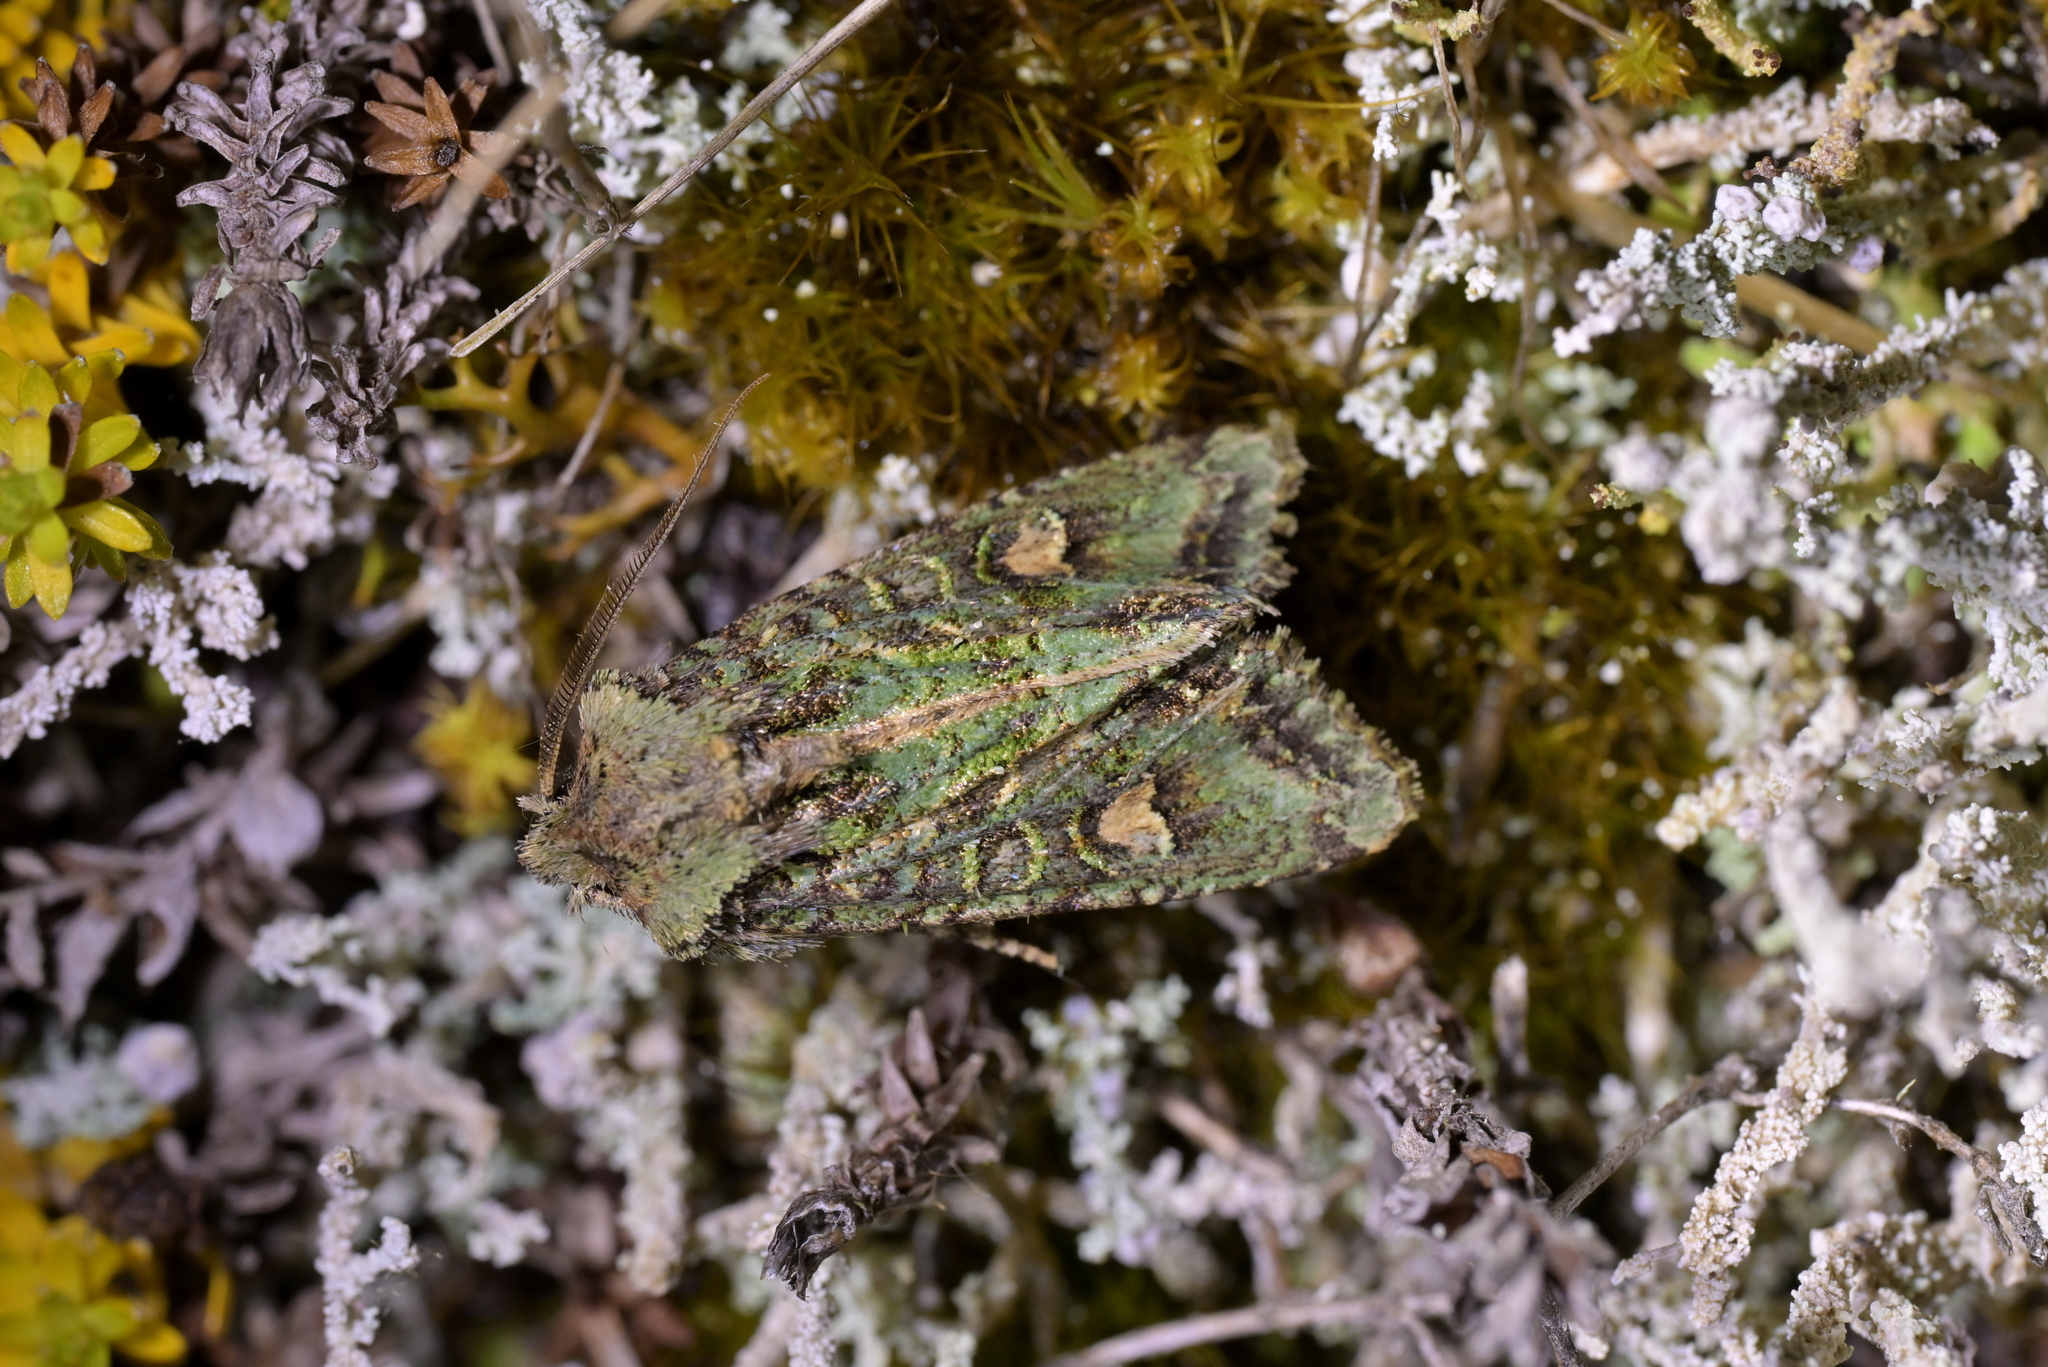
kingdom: Animalia
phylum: Arthropoda
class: Insecta
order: Lepidoptera
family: Noctuidae
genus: Ichneutica
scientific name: Ichneutica
